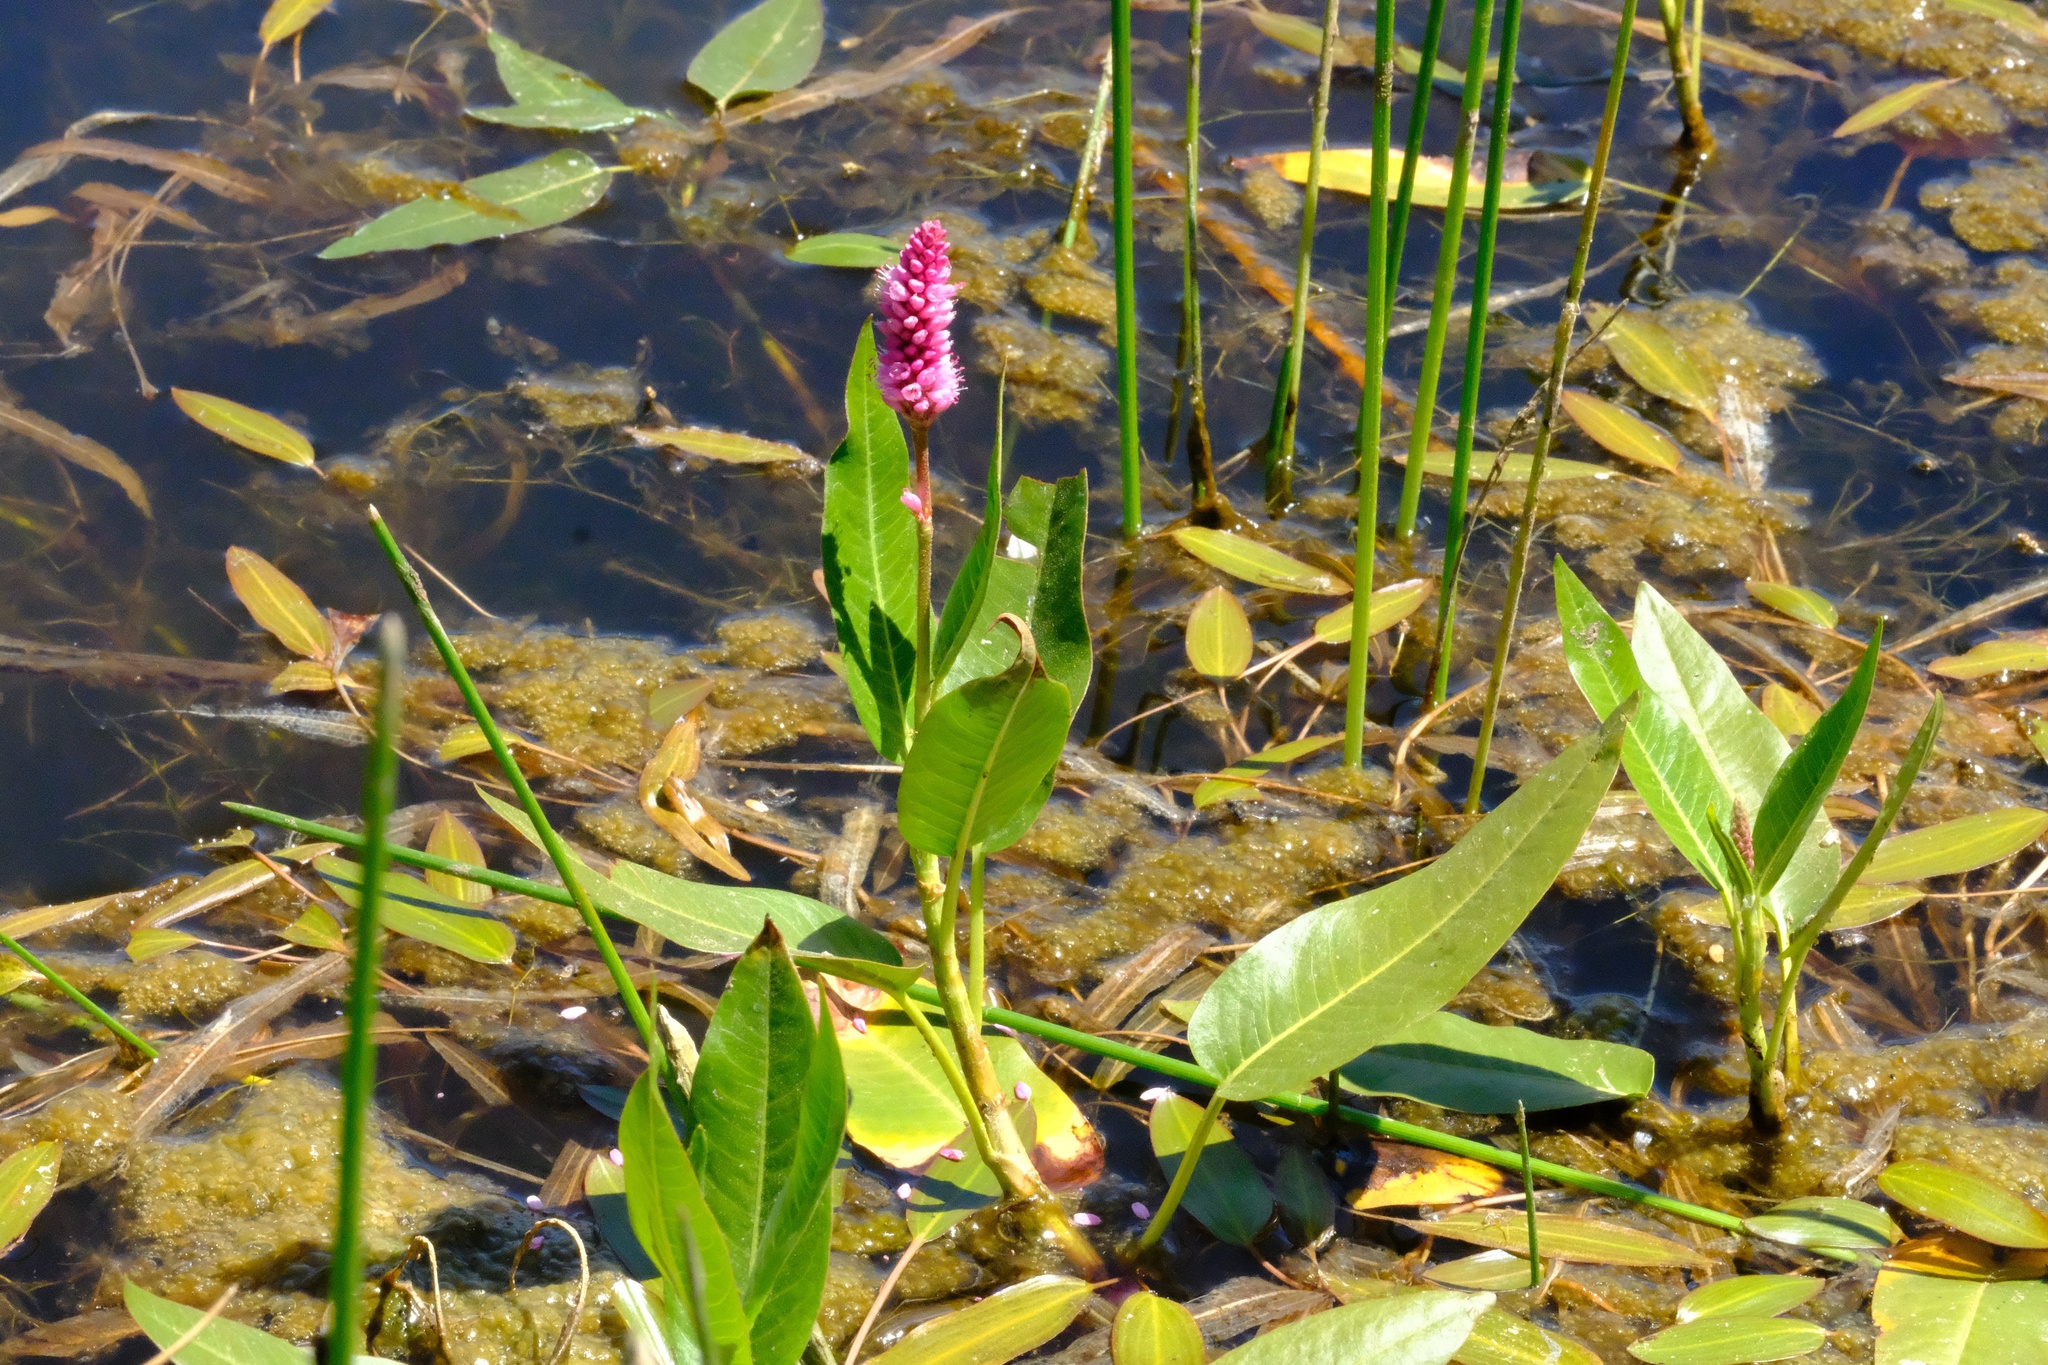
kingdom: Plantae
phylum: Tracheophyta
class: Magnoliopsida
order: Caryophyllales
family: Polygonaceae
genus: Persicaria
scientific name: Persicaria amphibia
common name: Amphibious bistort
